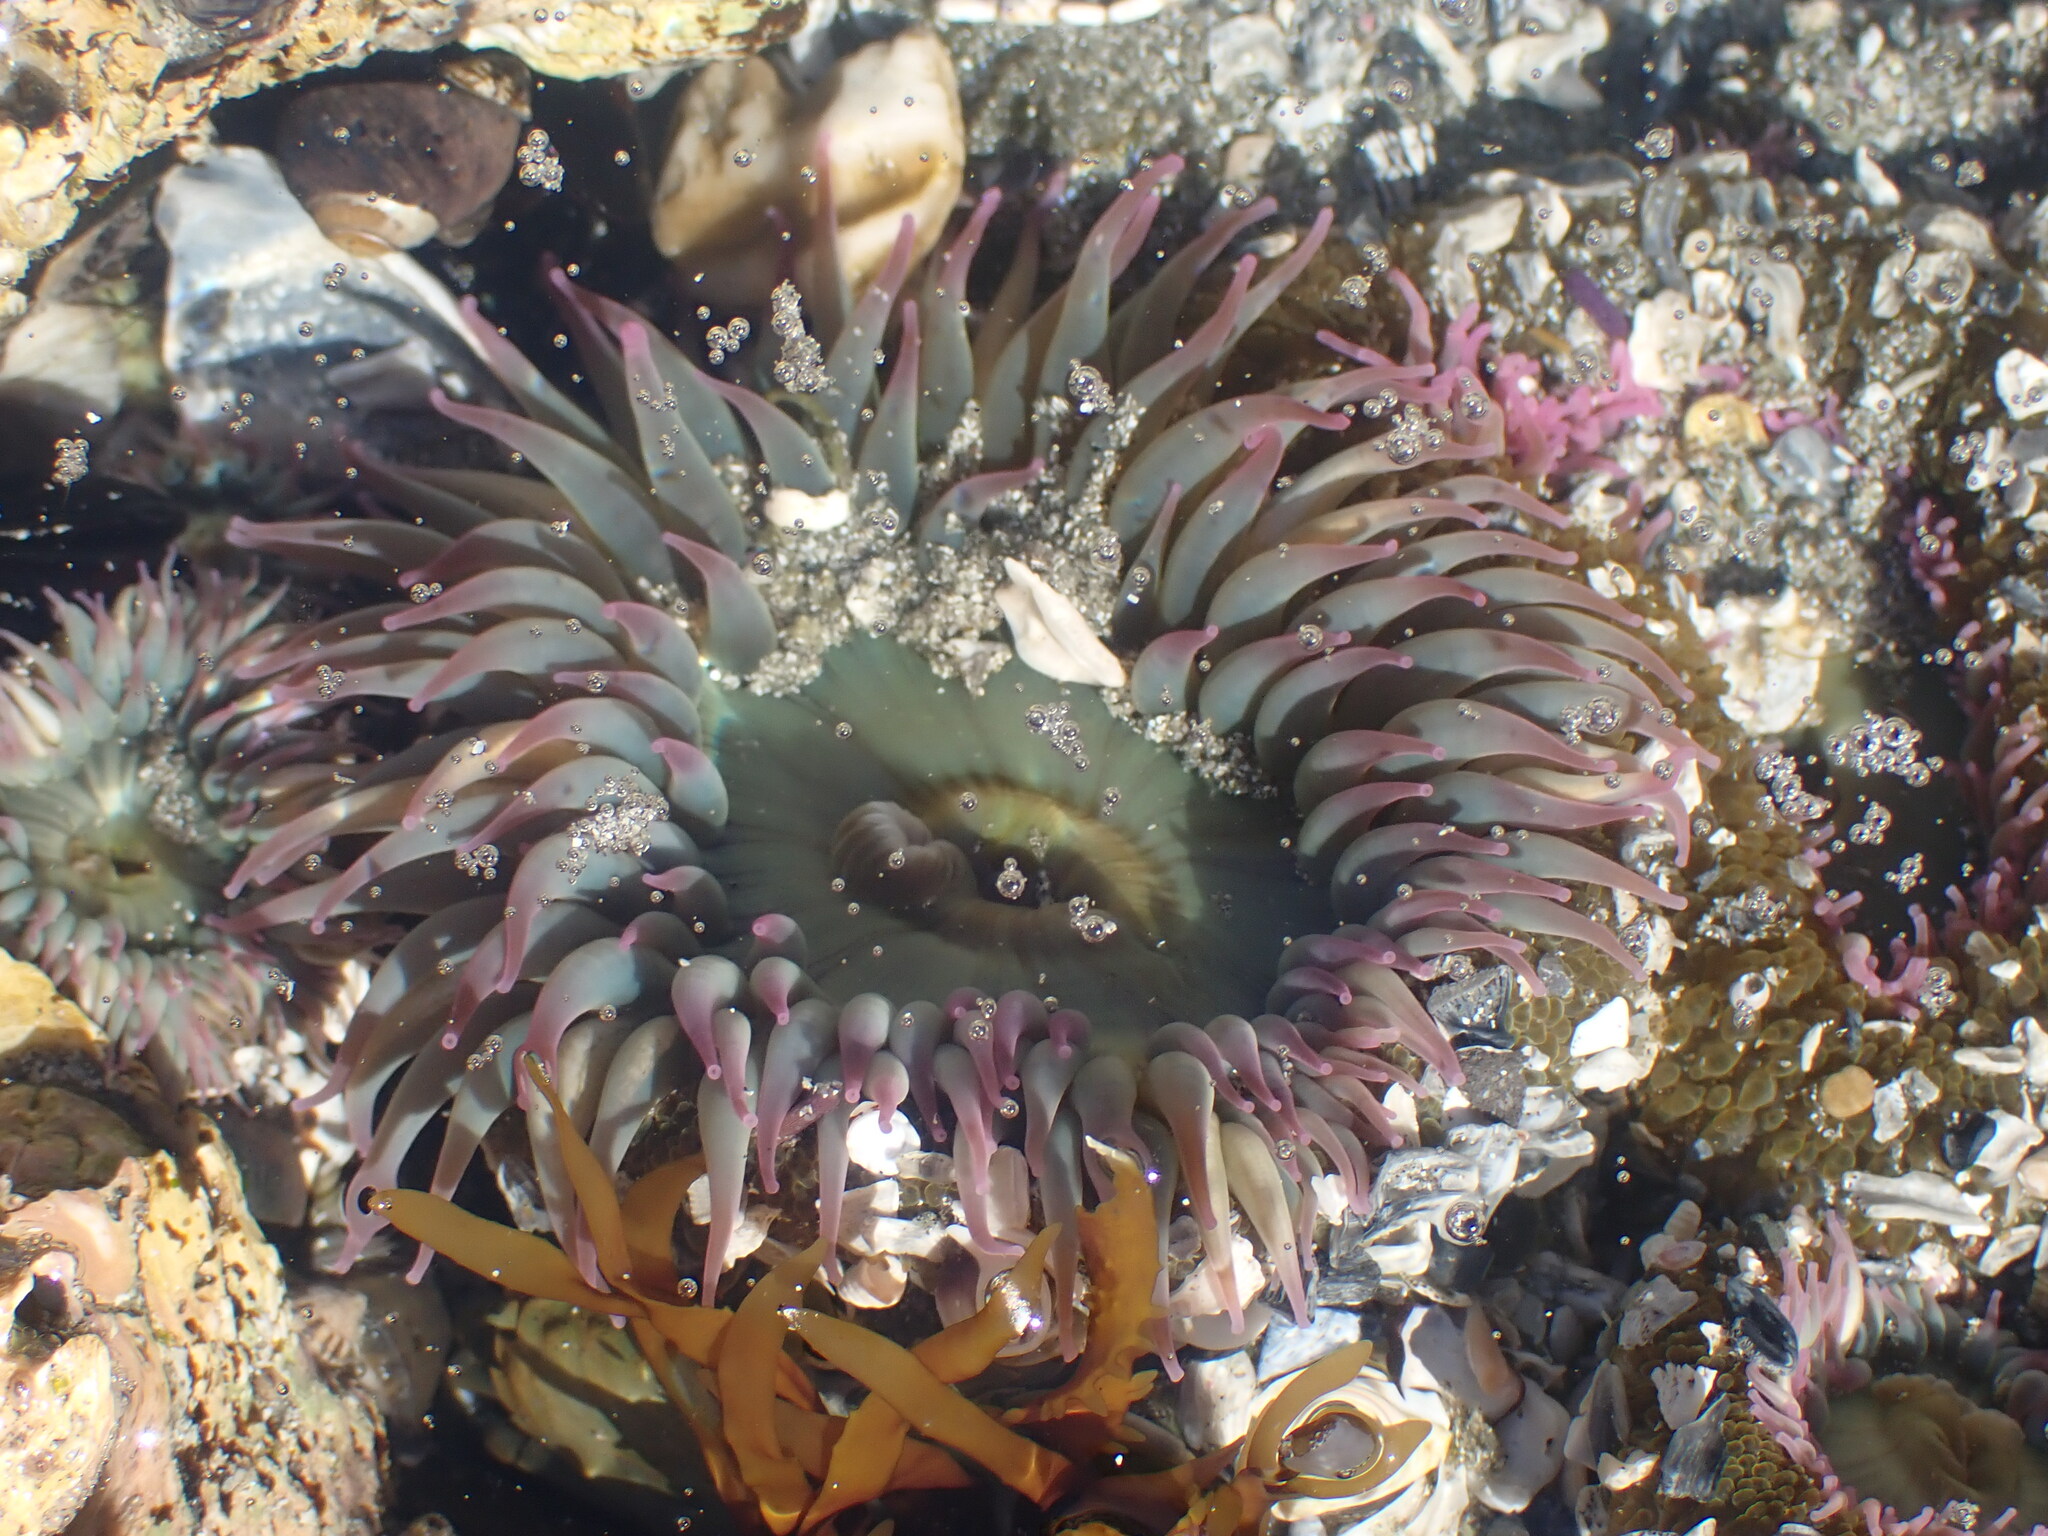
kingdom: Animalia
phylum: Cnidaria
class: Anthozoa
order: Actiniaria
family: Actiniidae
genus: Anthopleura
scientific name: Anthopleura elegantissima
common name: Clonal anemone
